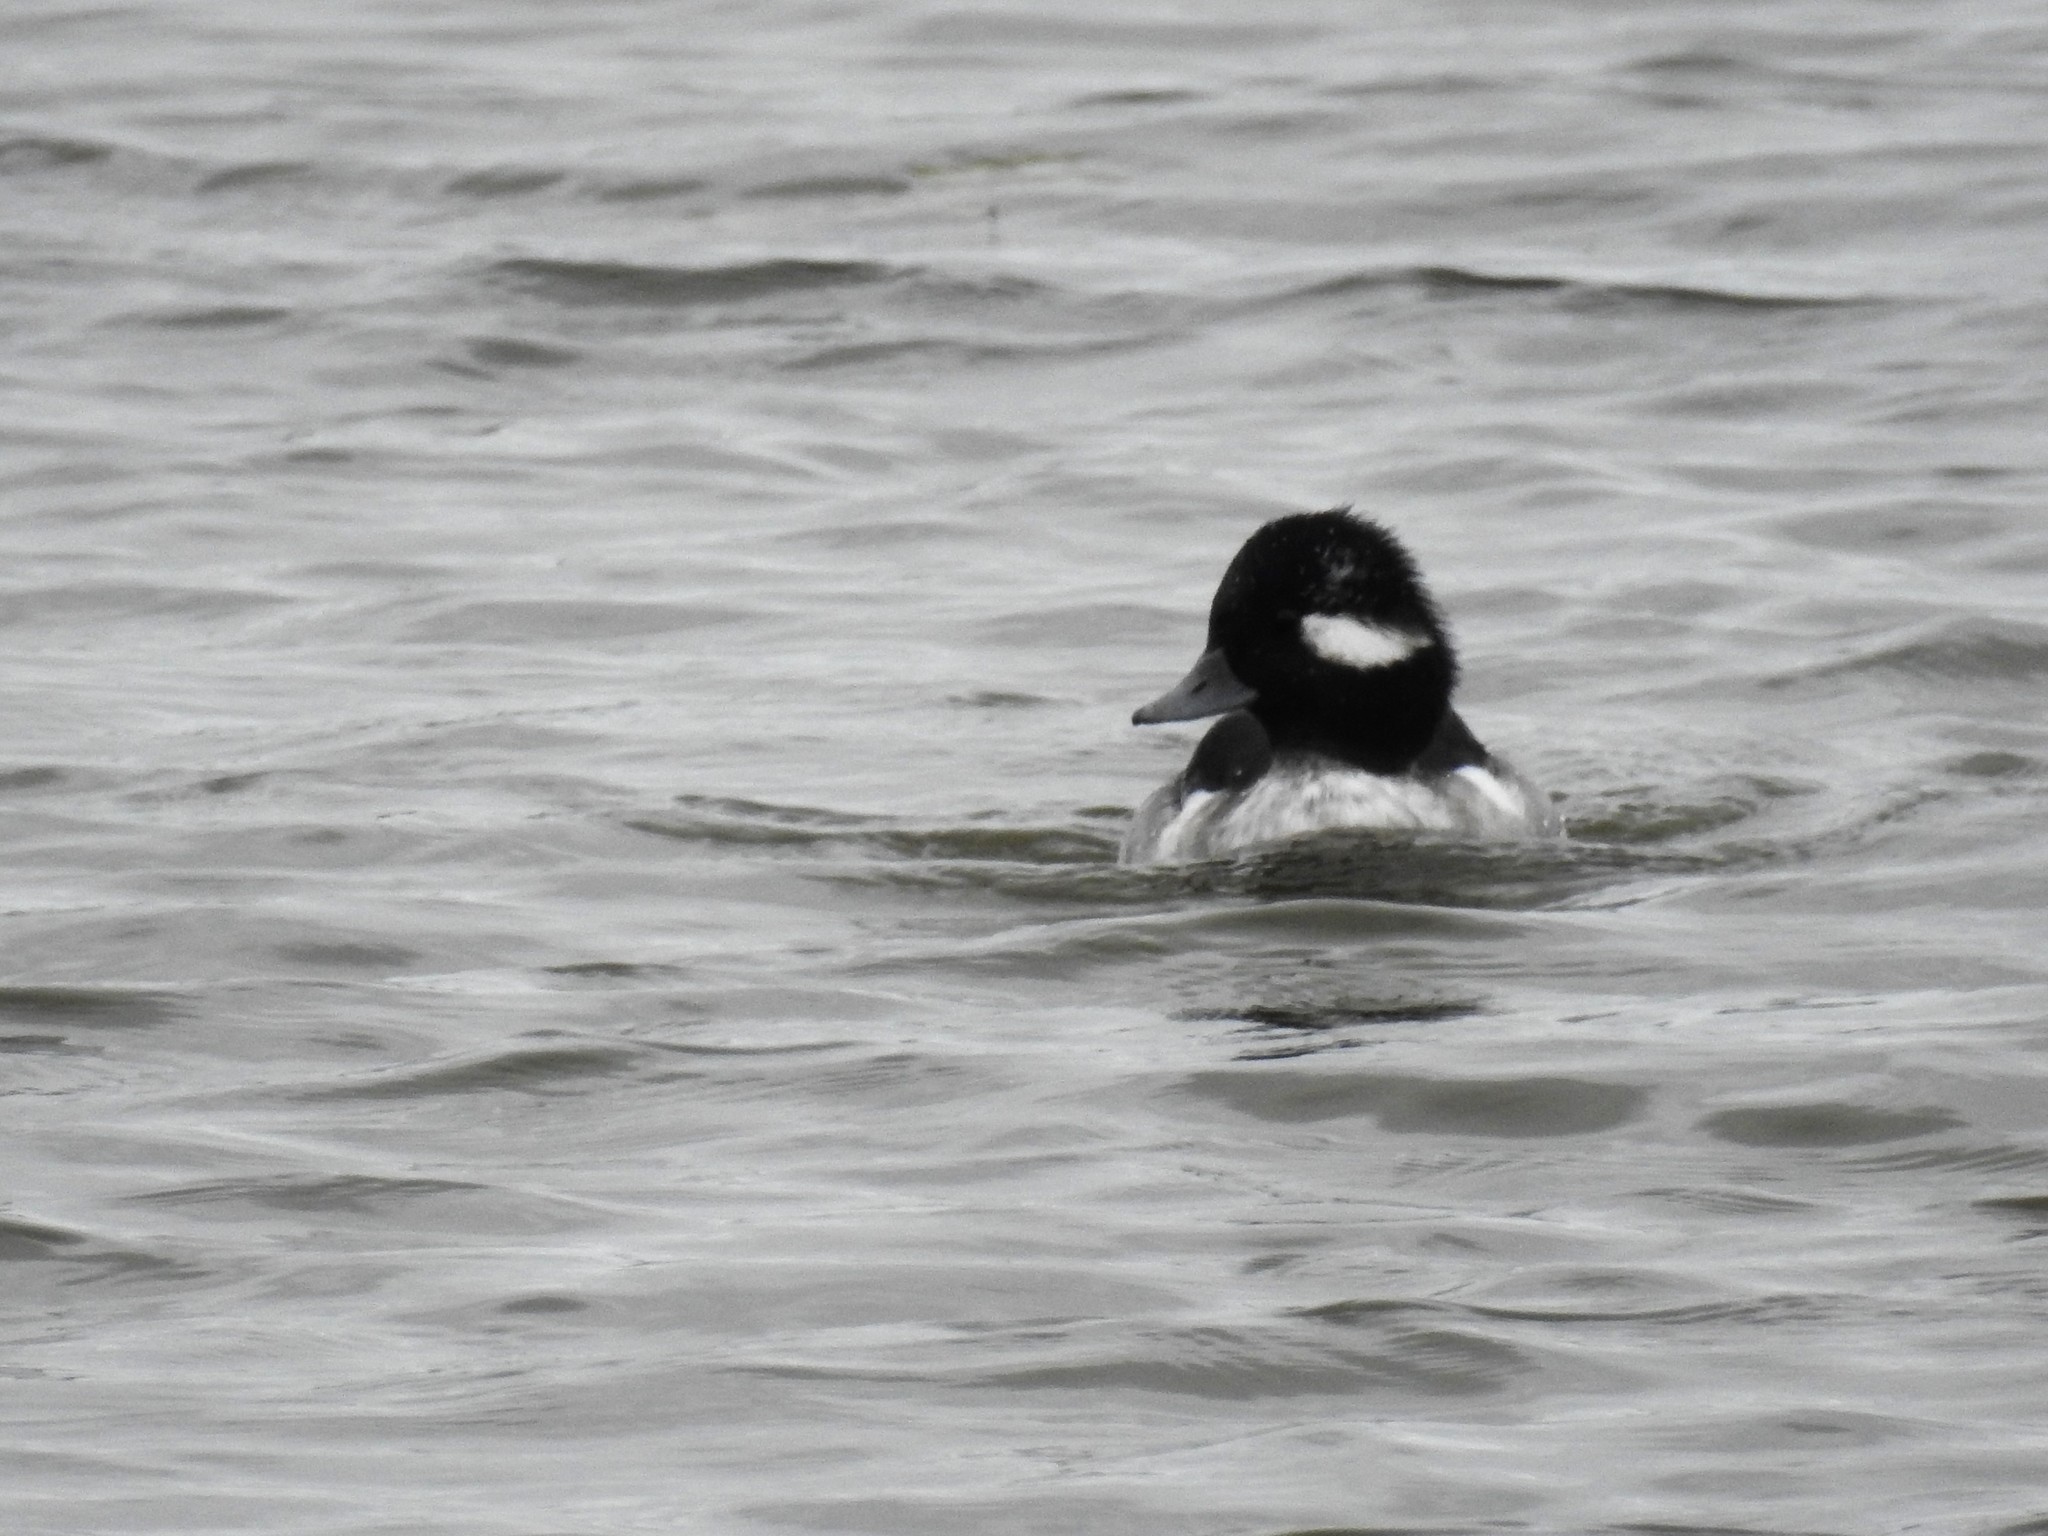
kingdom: Animalia
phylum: Chordata
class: Aves
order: Anseriformes
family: Anatidae
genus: Bucephala
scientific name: Bucephala albeola
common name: Bufflehead
